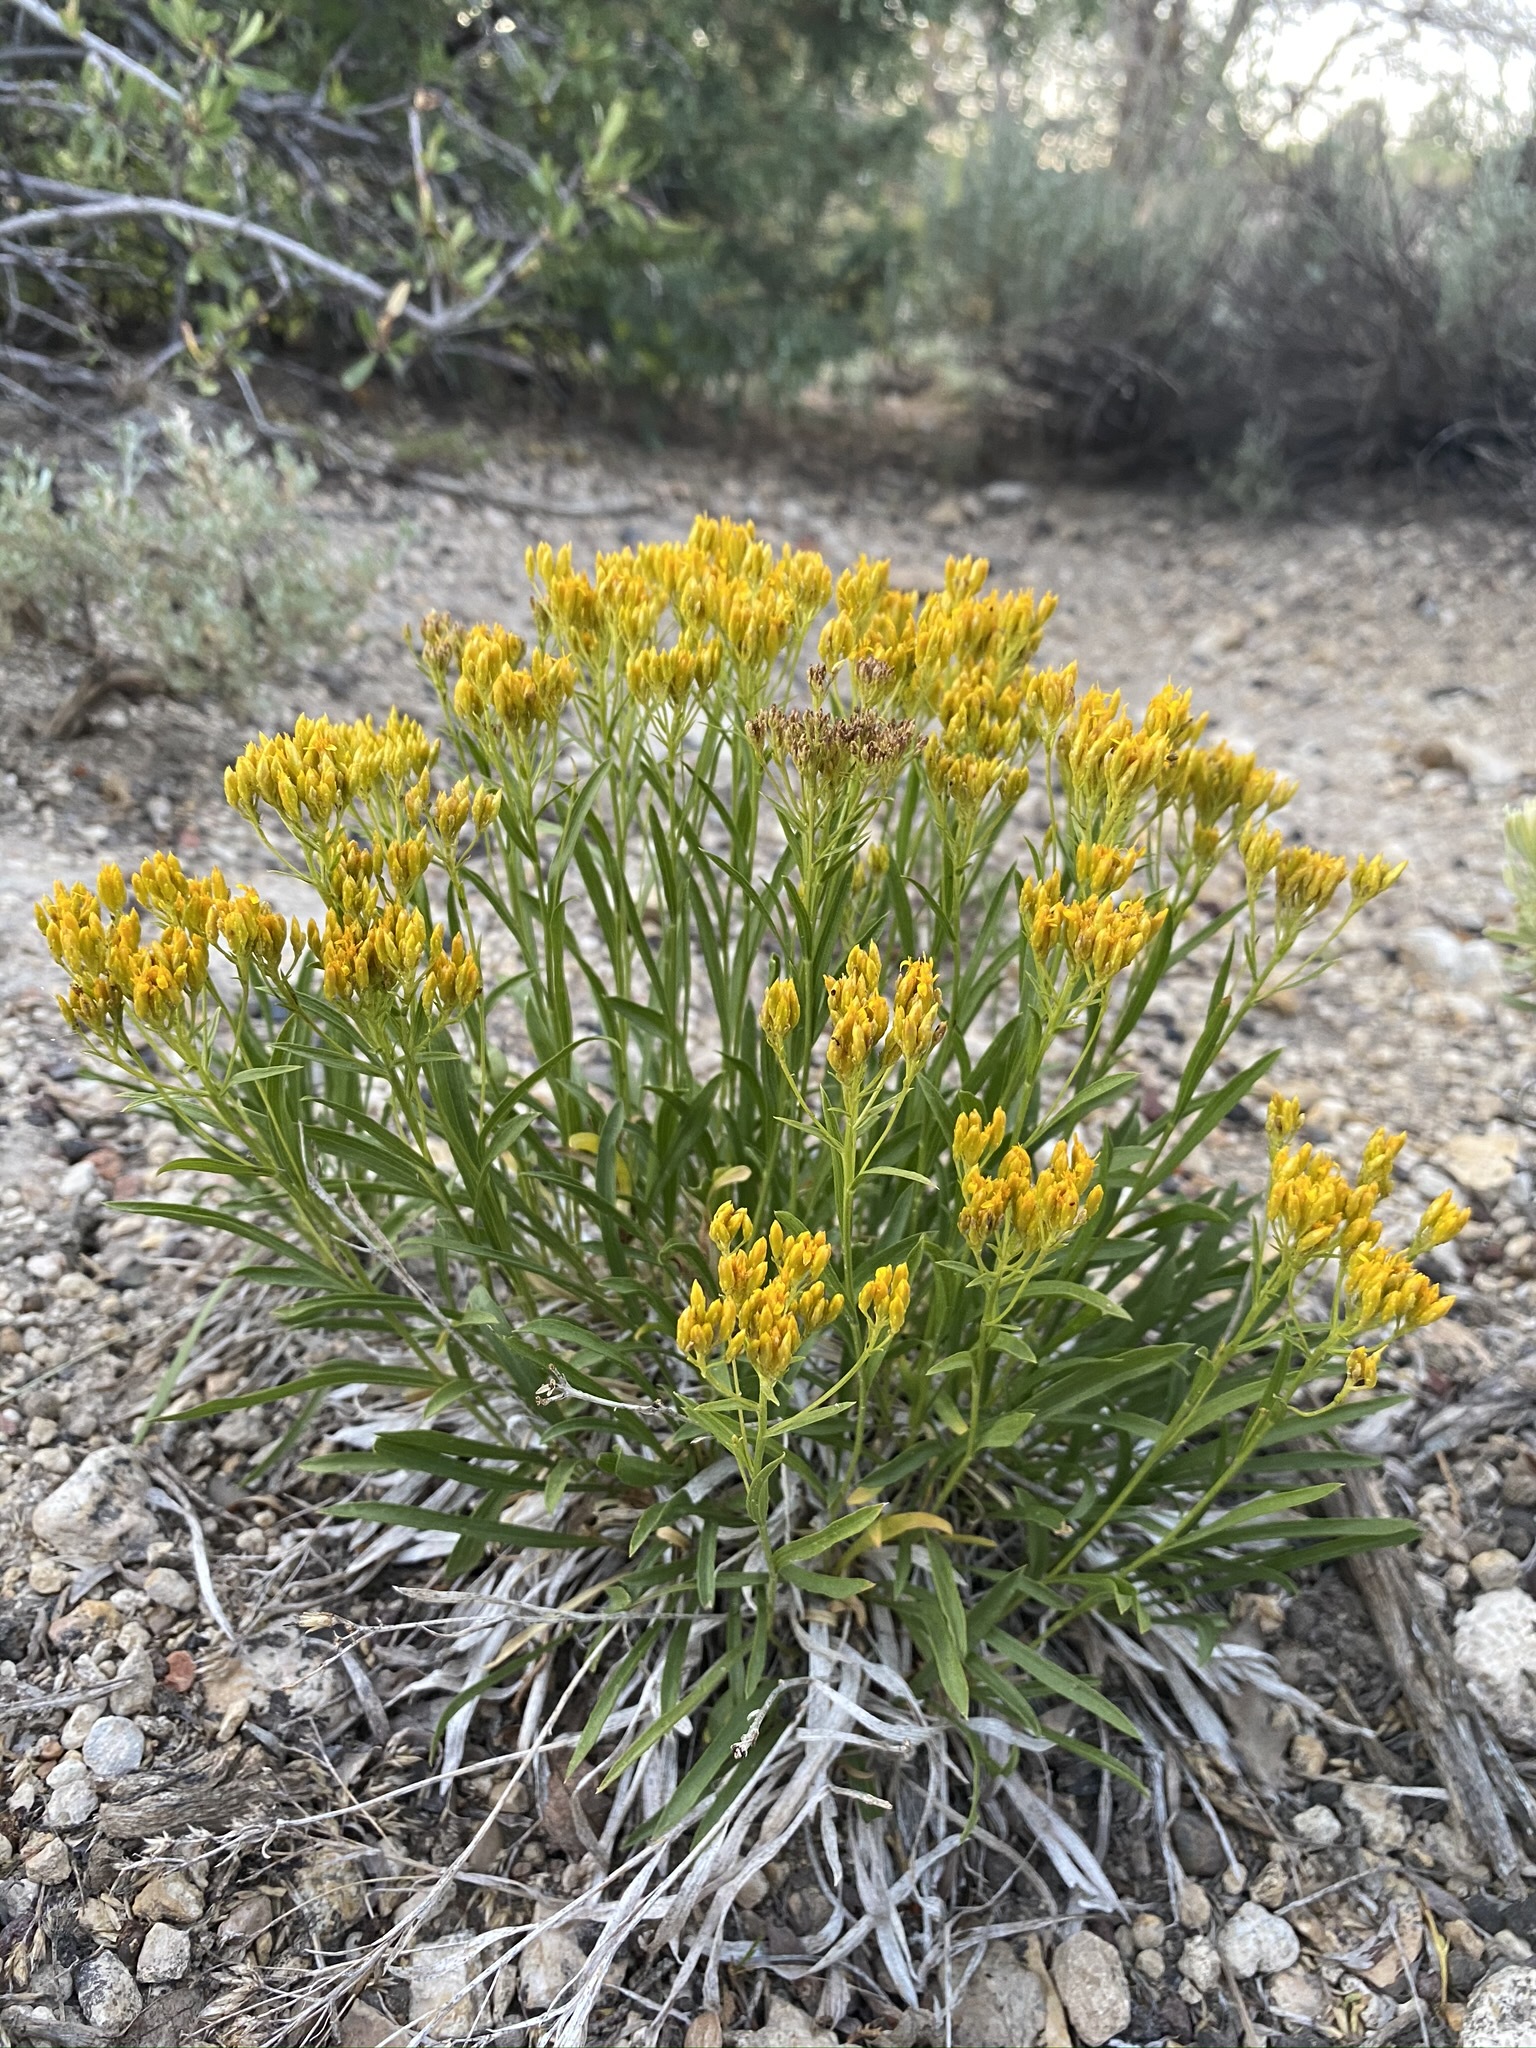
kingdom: Plantae
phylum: Tracheophyta
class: Magnoliopsida
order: Asterales
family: Asteraceae
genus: Petradoria
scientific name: Petradoria pumila
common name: Rock-goldenrod
